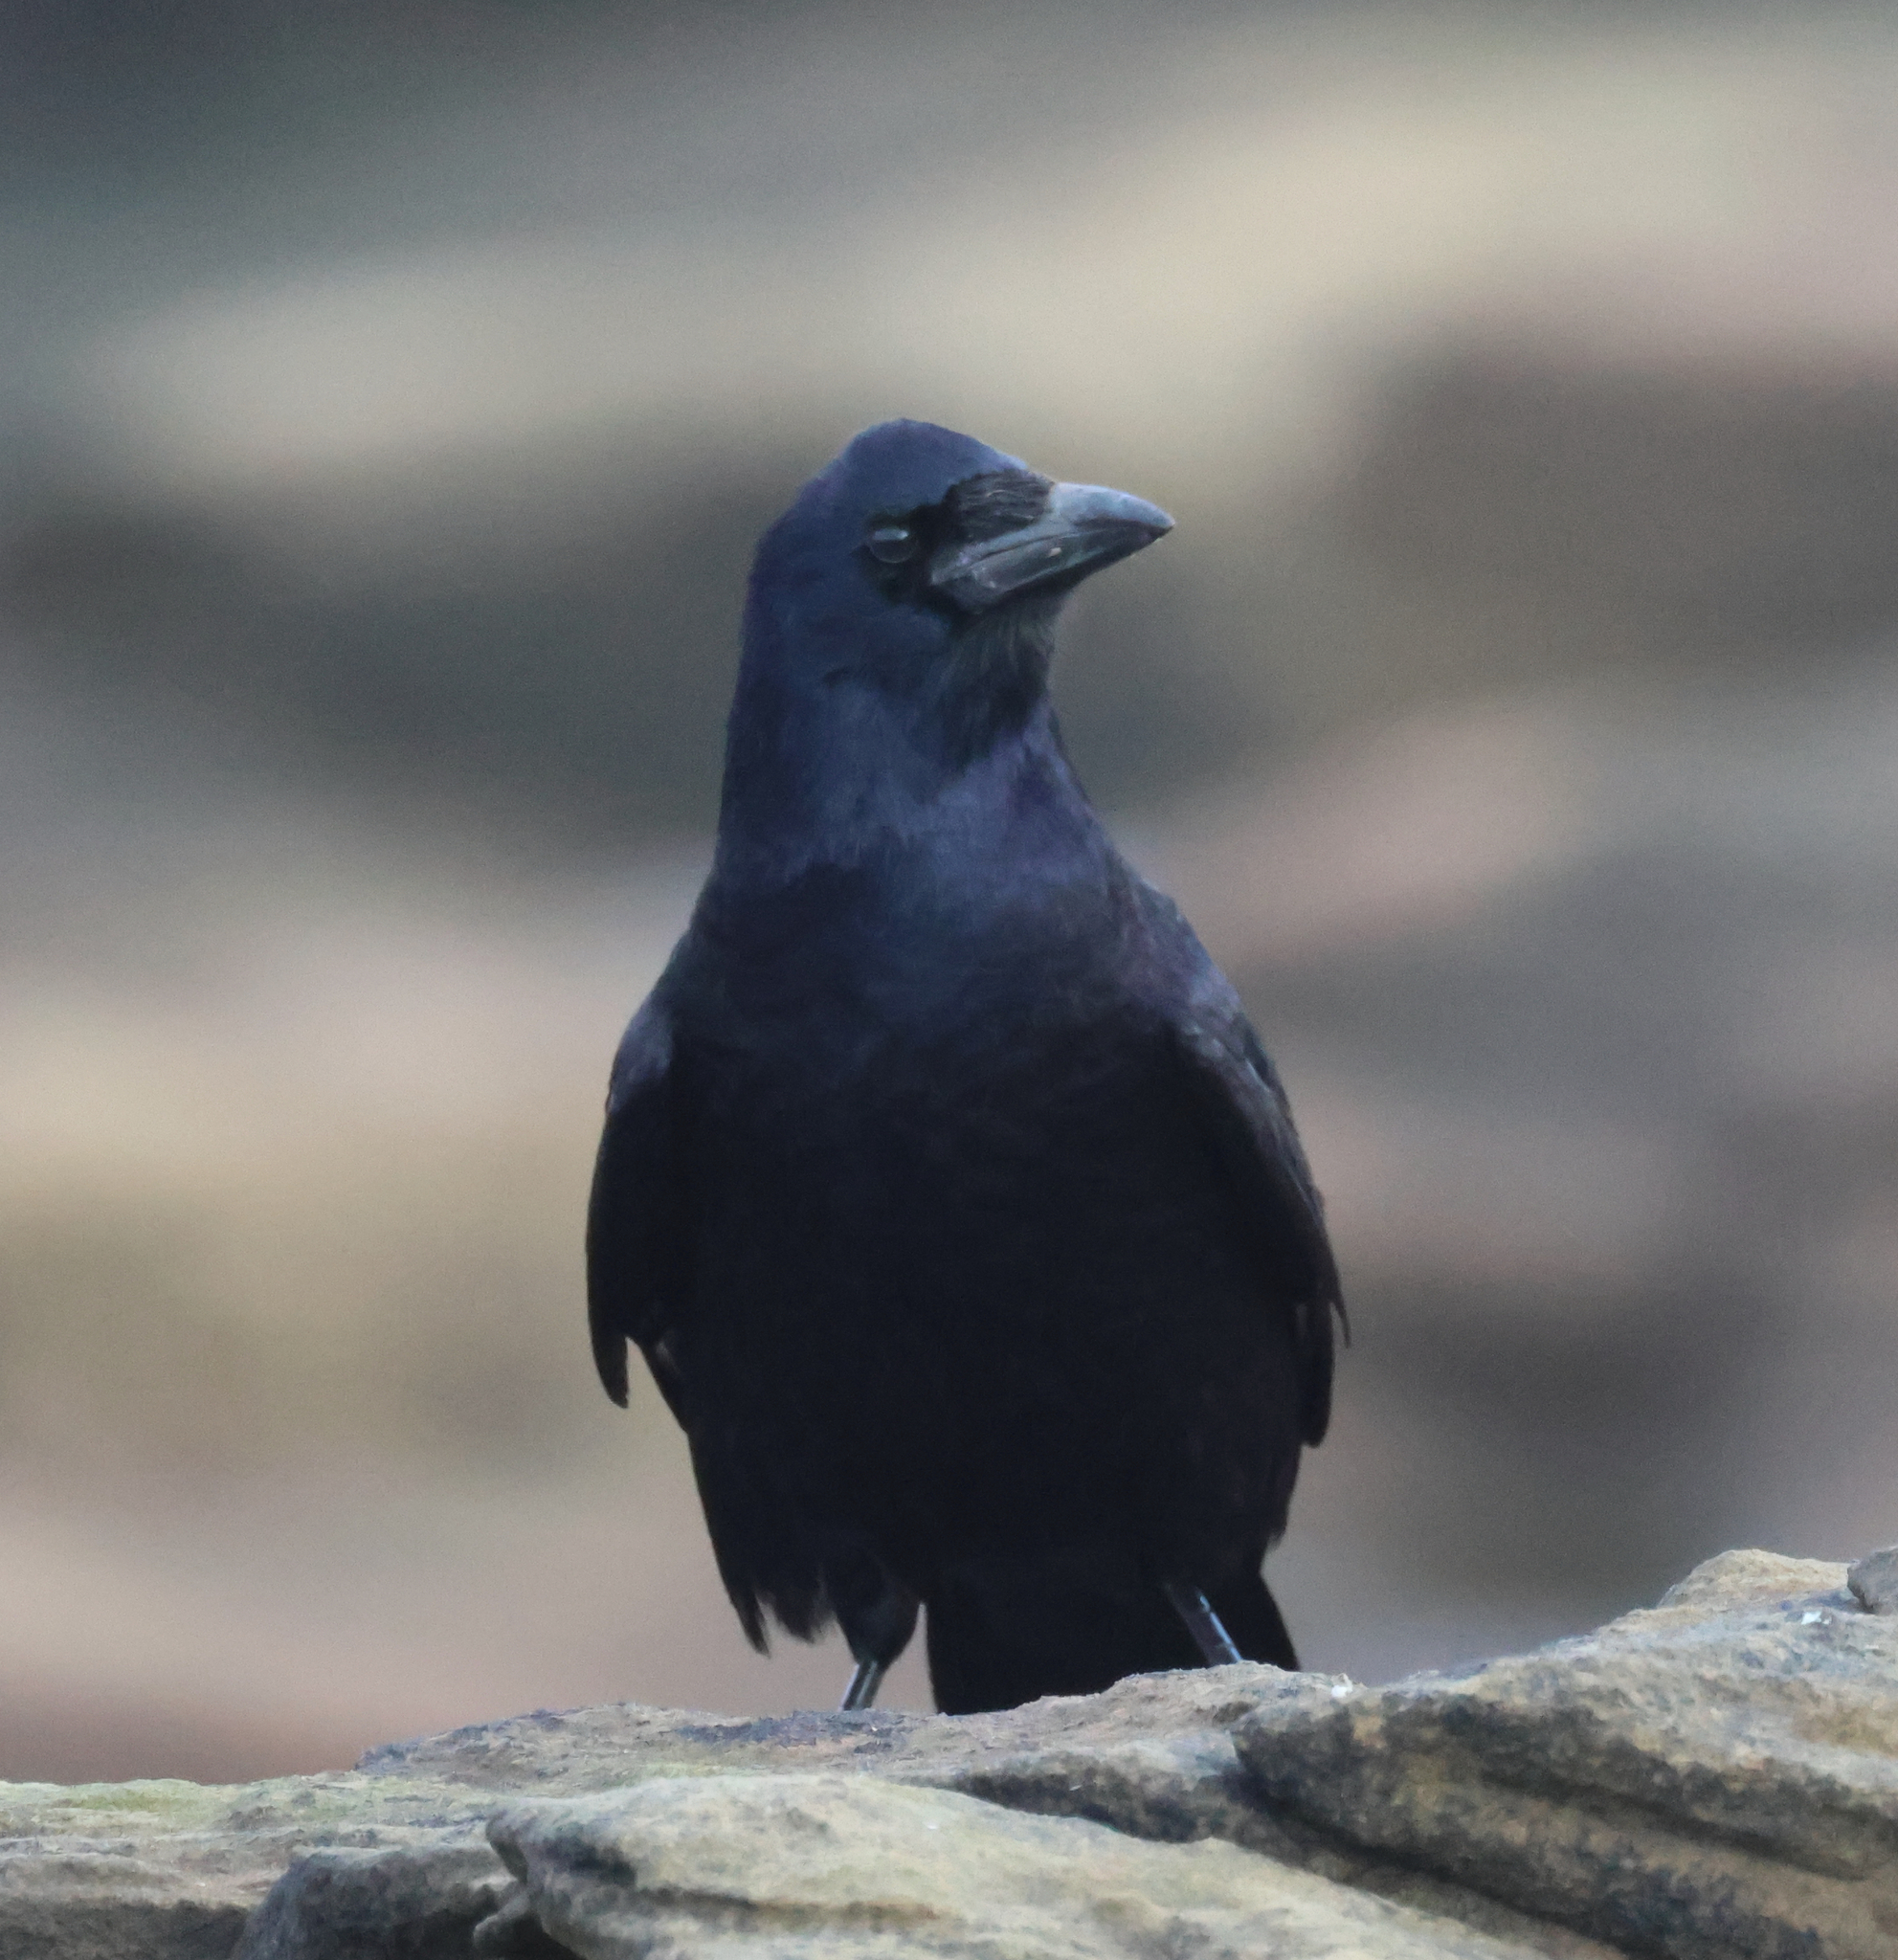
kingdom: Animalia
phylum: Chordata
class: Aves
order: Passeriformes
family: Corvidae
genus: Corvus
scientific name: Corvus corone
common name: Carrion crow
